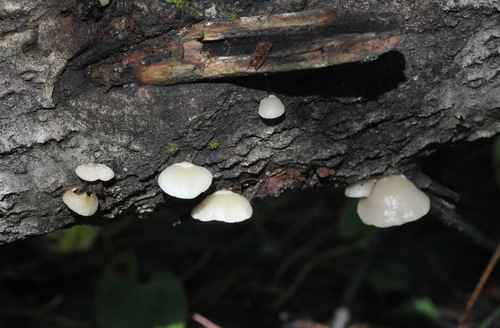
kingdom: Fungi
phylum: Basidiomycota
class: Agaricomycetes
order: Agaricales
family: Crepidotaceae
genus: Crepidotus
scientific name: Crepidotus mollis
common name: Peeling oysterling
